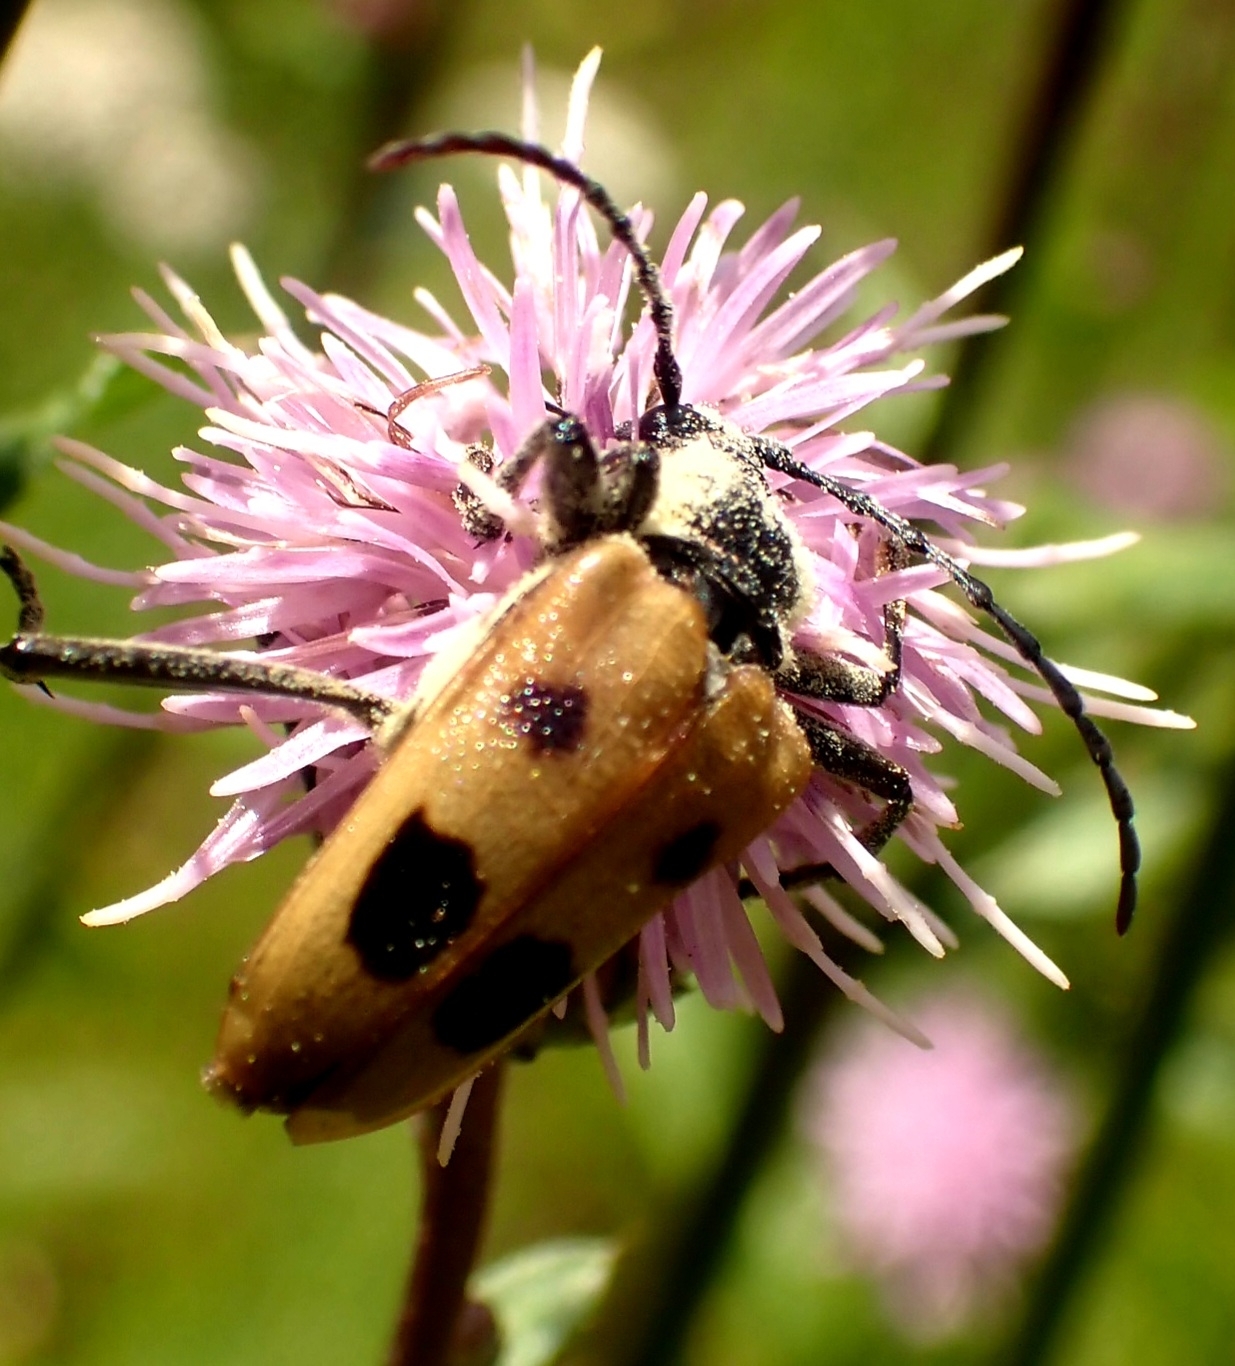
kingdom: Animalia
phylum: Arthropoda
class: Insecta
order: Coleoptera
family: Cerambycidae
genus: Pachyta
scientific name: Pachyta quadrimaculata
